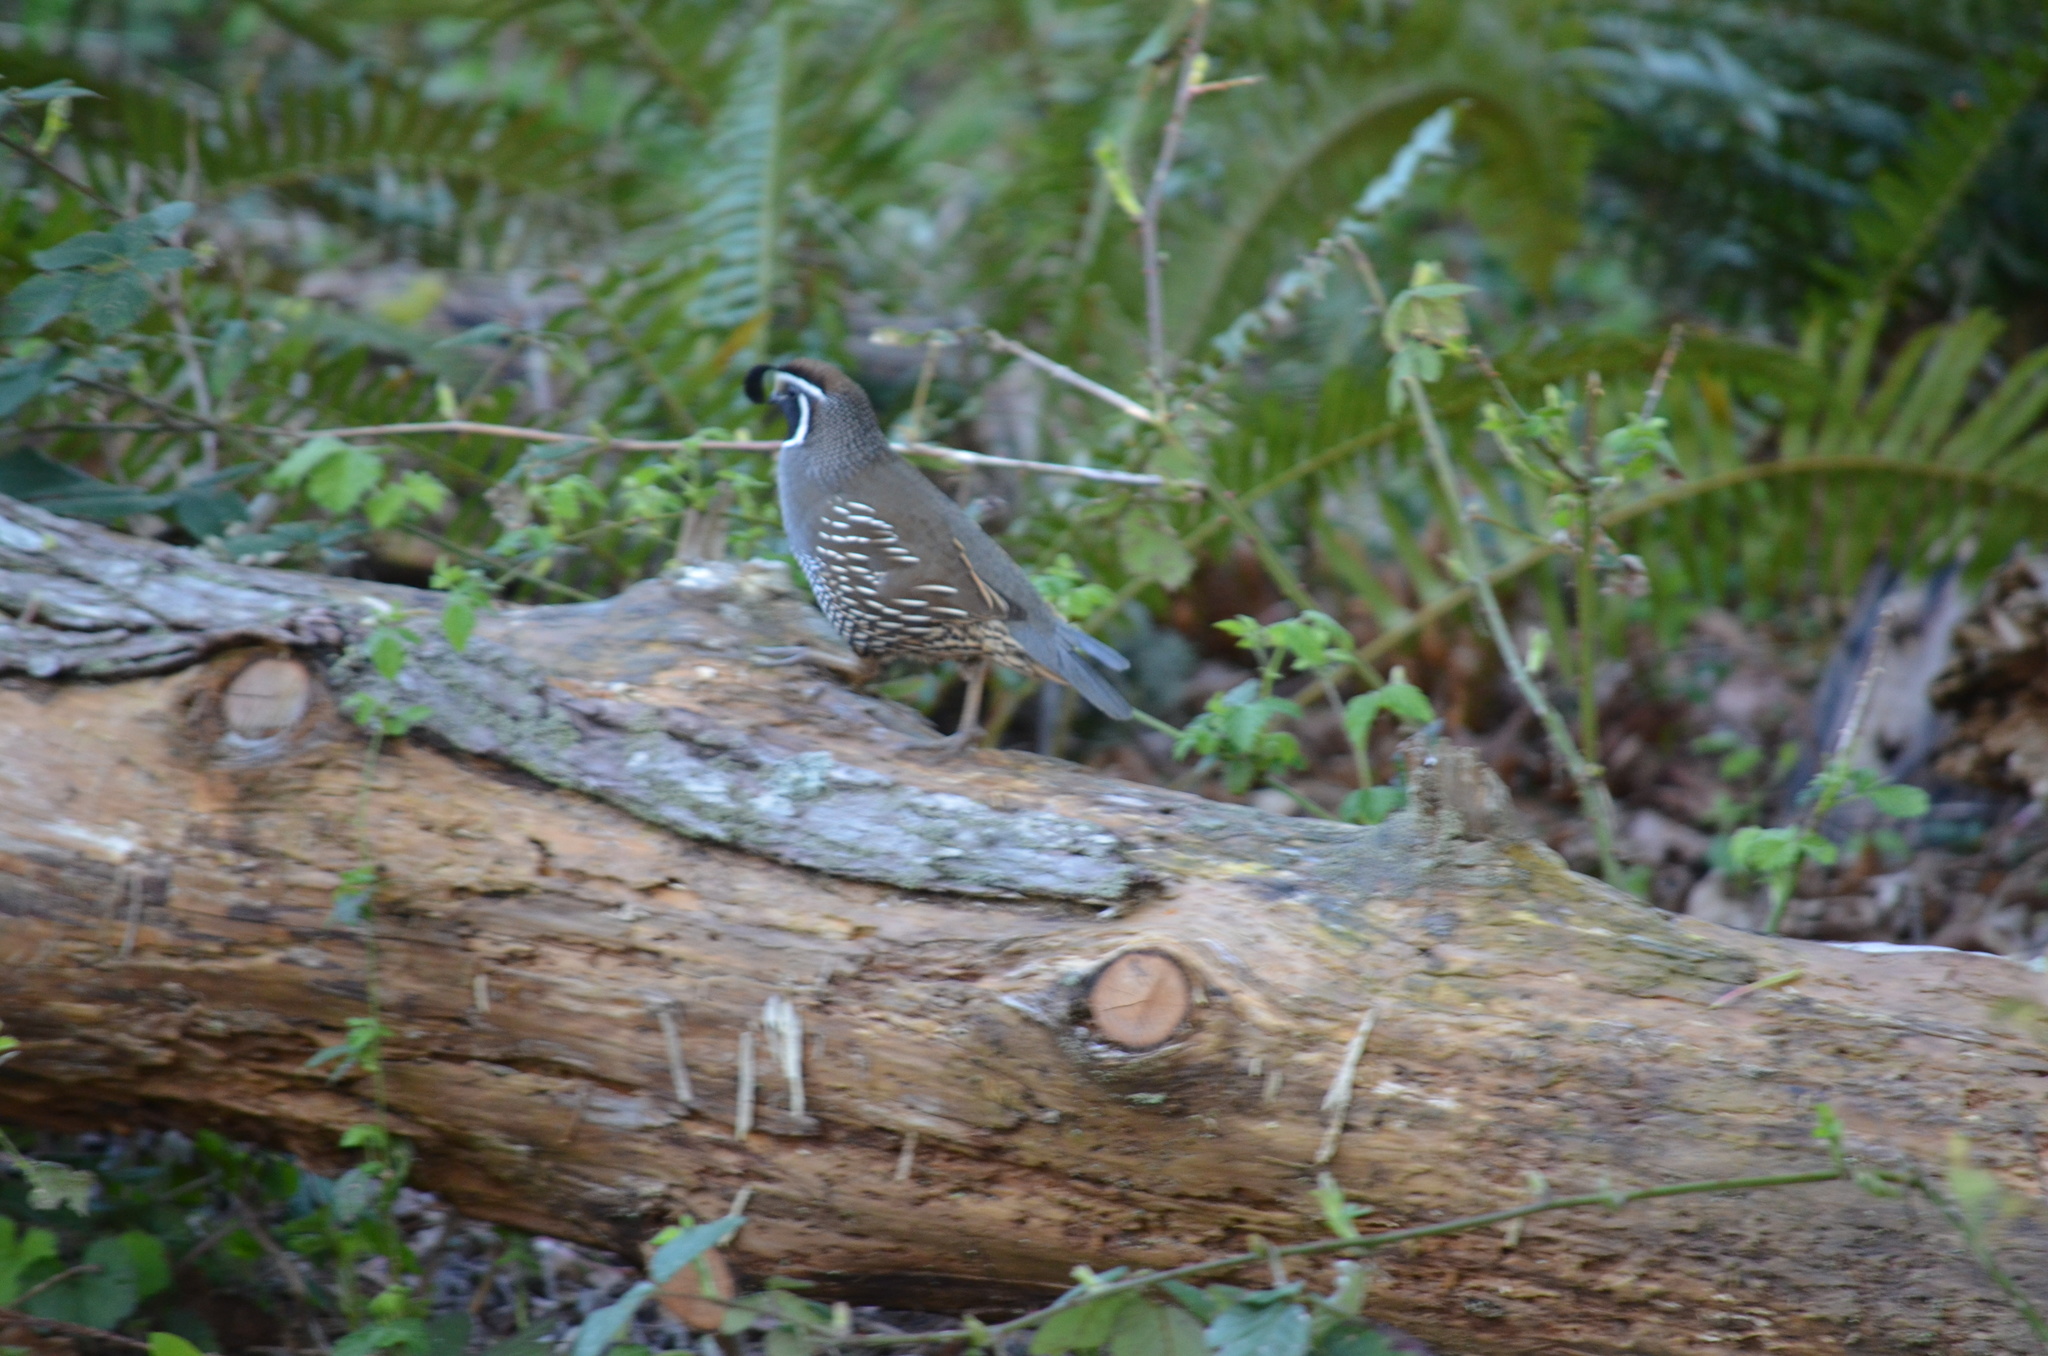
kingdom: Animalia
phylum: Chordata
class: Aves
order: Galliformes
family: Odontophoridae
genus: Callipepla
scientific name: Callipepla californica
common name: California quail
